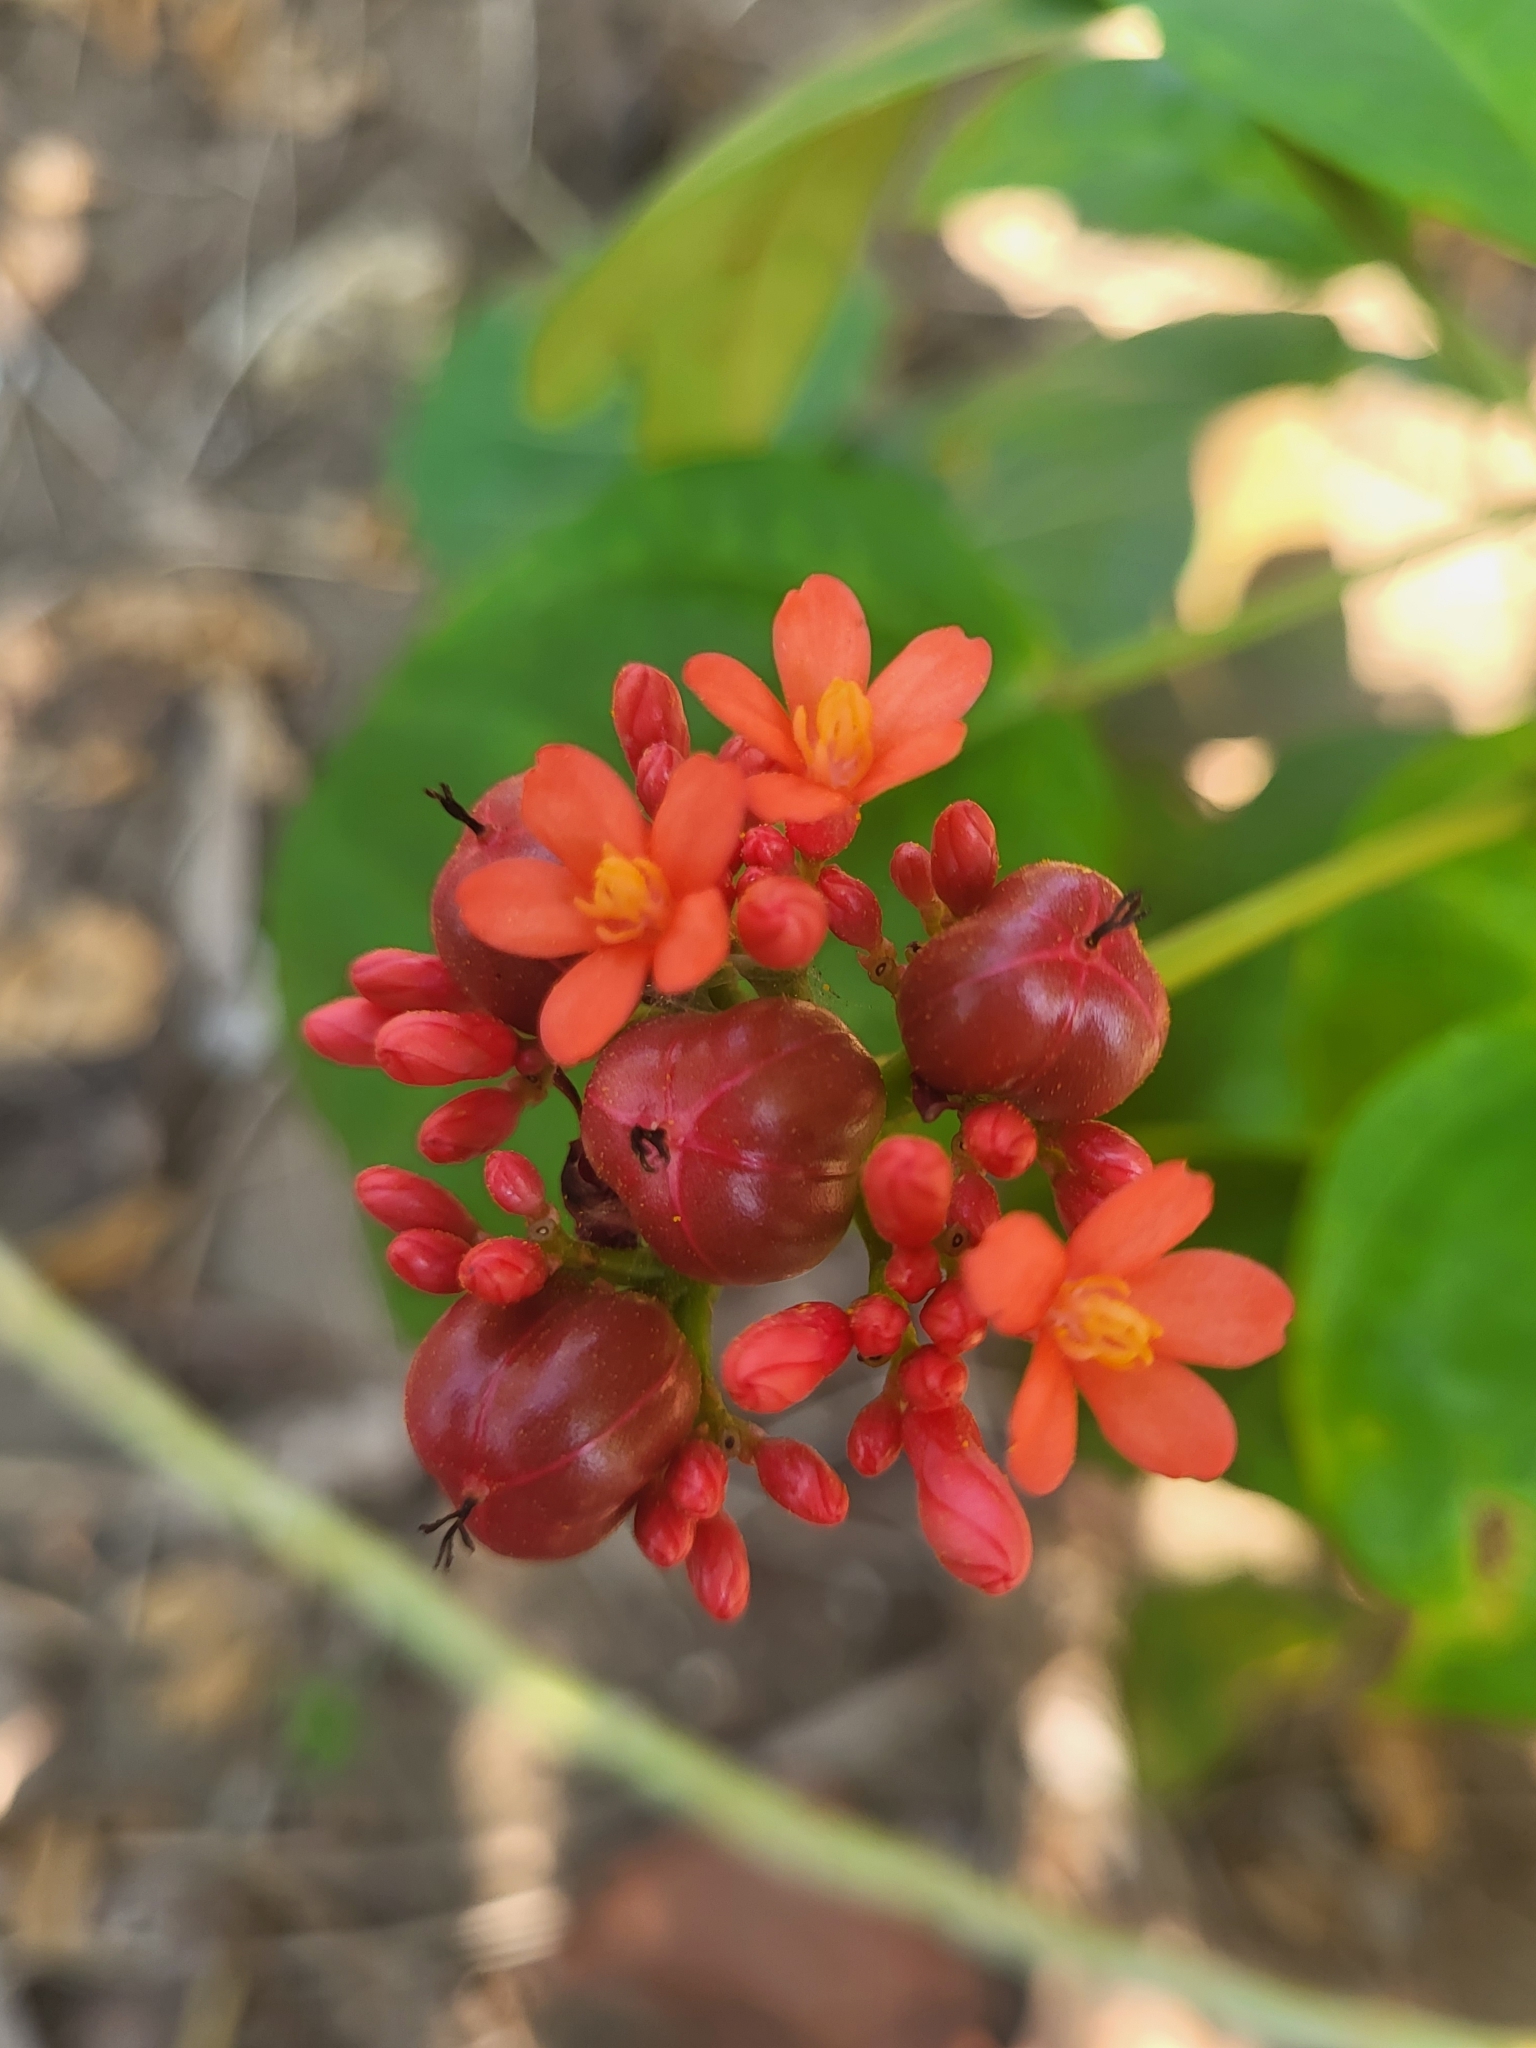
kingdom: Plantae
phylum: Tracheophyta
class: Magnoliopsida
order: Malpighiales
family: Euphorbiaceae
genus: Jatropha
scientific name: Jatropha integerrima
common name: Peregrina
